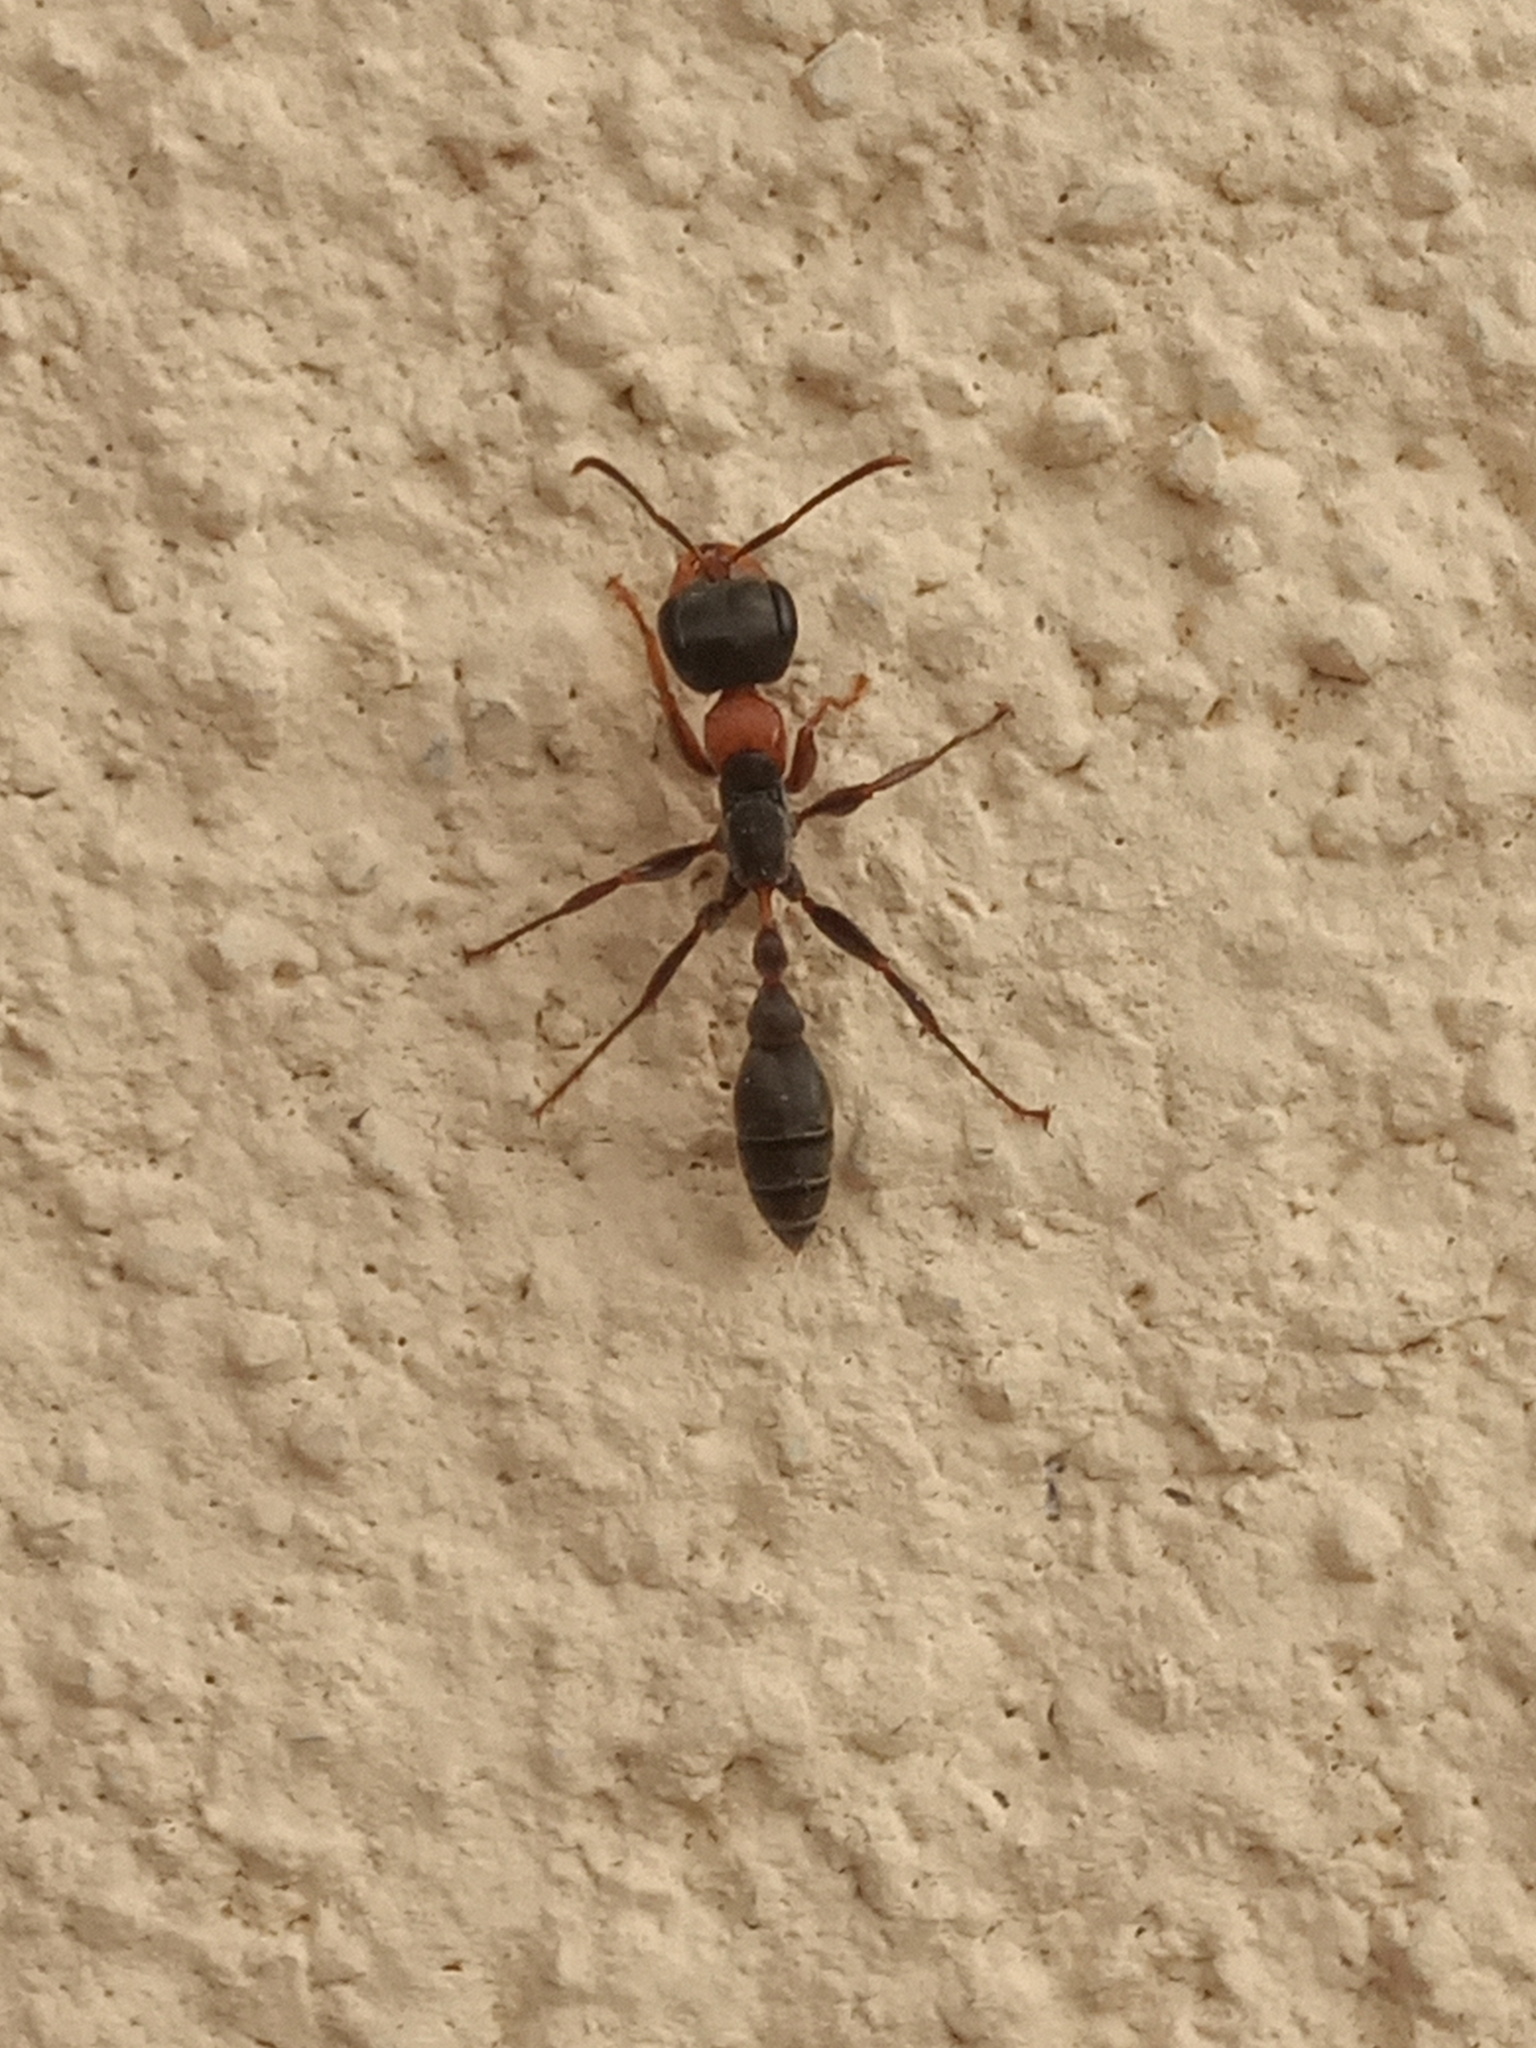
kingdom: Animalia
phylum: Arthropoda
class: Insecta
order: Hymenoptera
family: Formicidae
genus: Pseudomyrmex
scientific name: Pseudomyrmex gracilis
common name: Graceful twig ant
